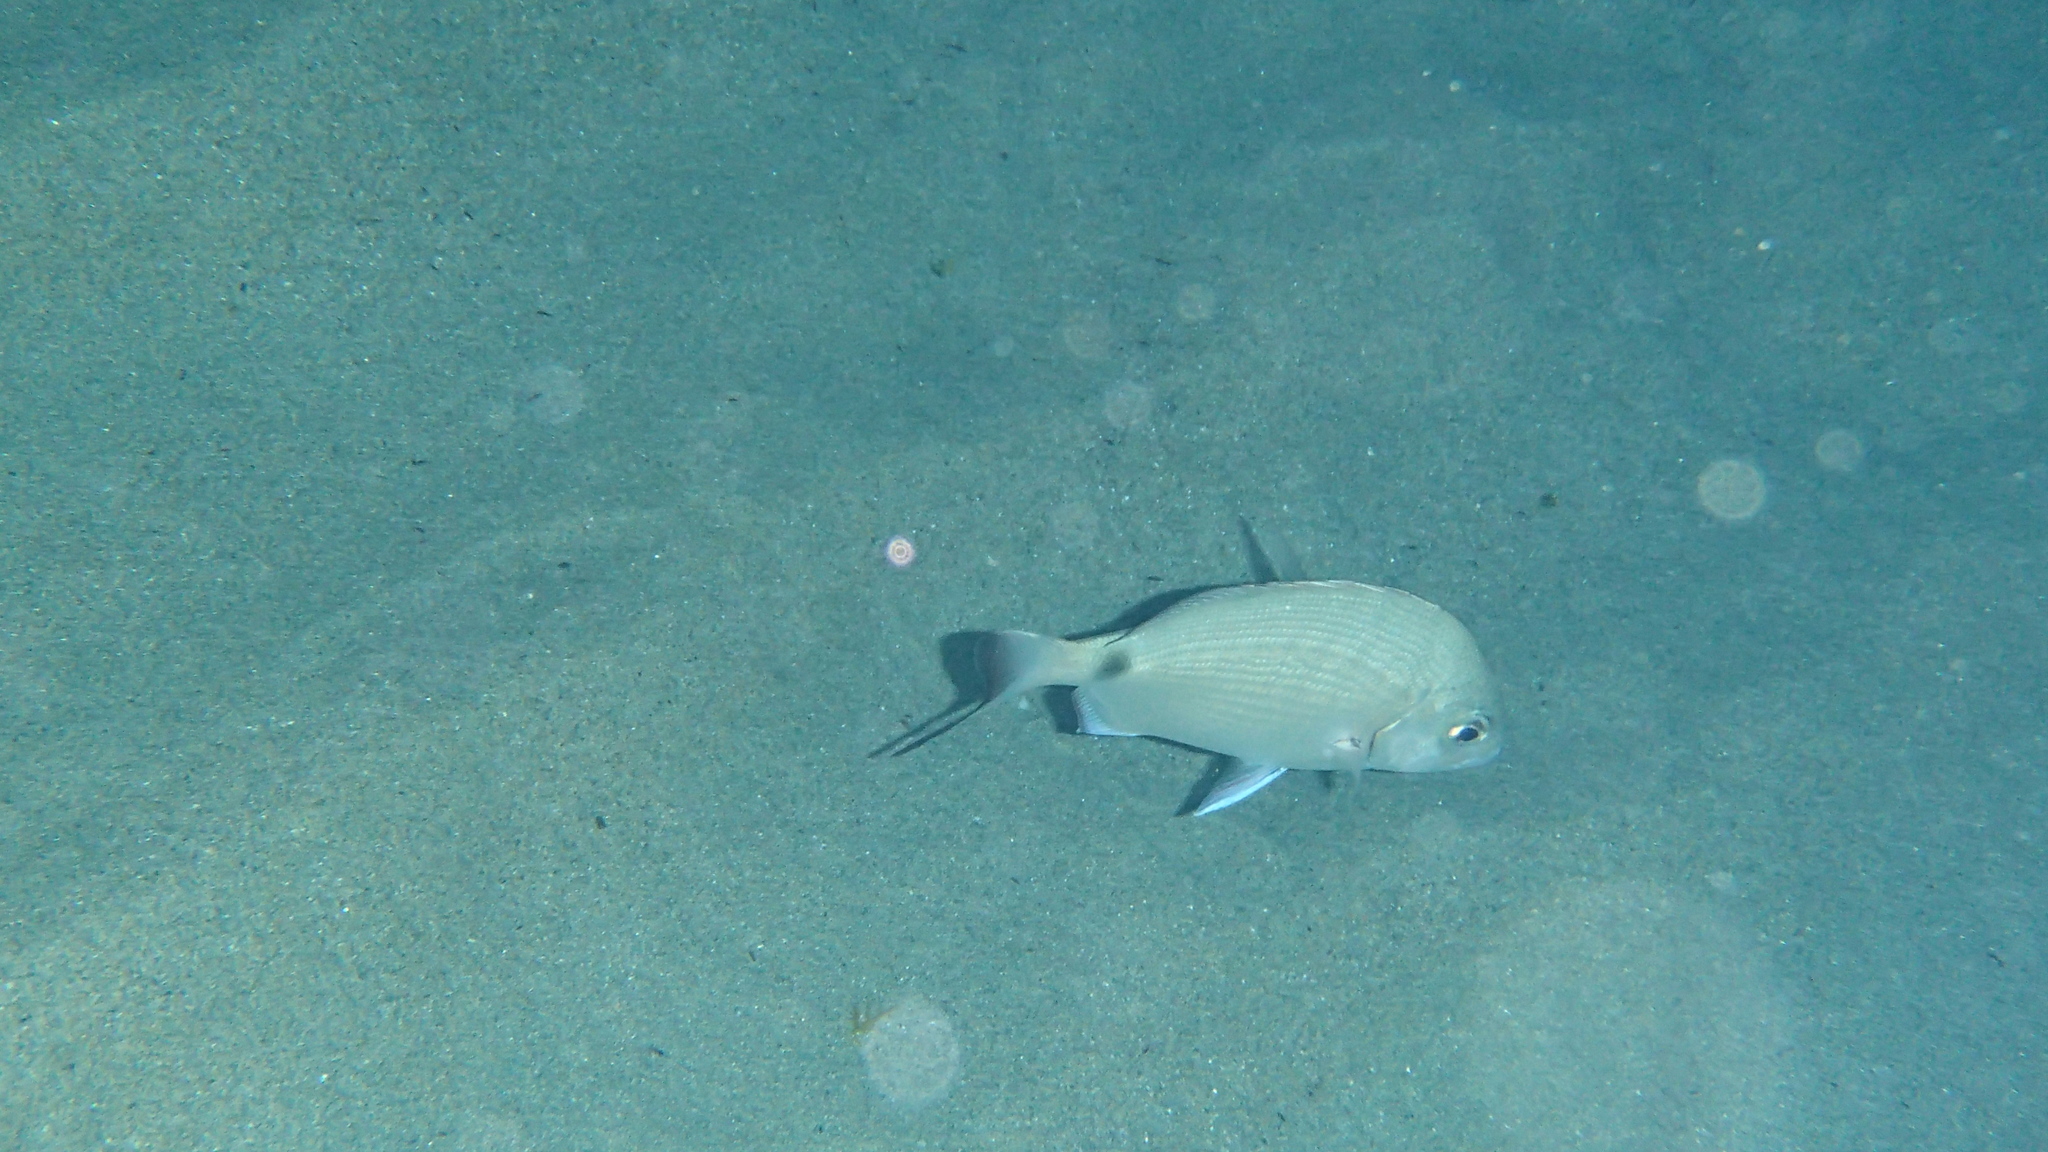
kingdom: Animalia
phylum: Chordata
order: Perciformes
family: Sparidae
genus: Diplodus
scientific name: Diplodus sargus
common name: White seabream
